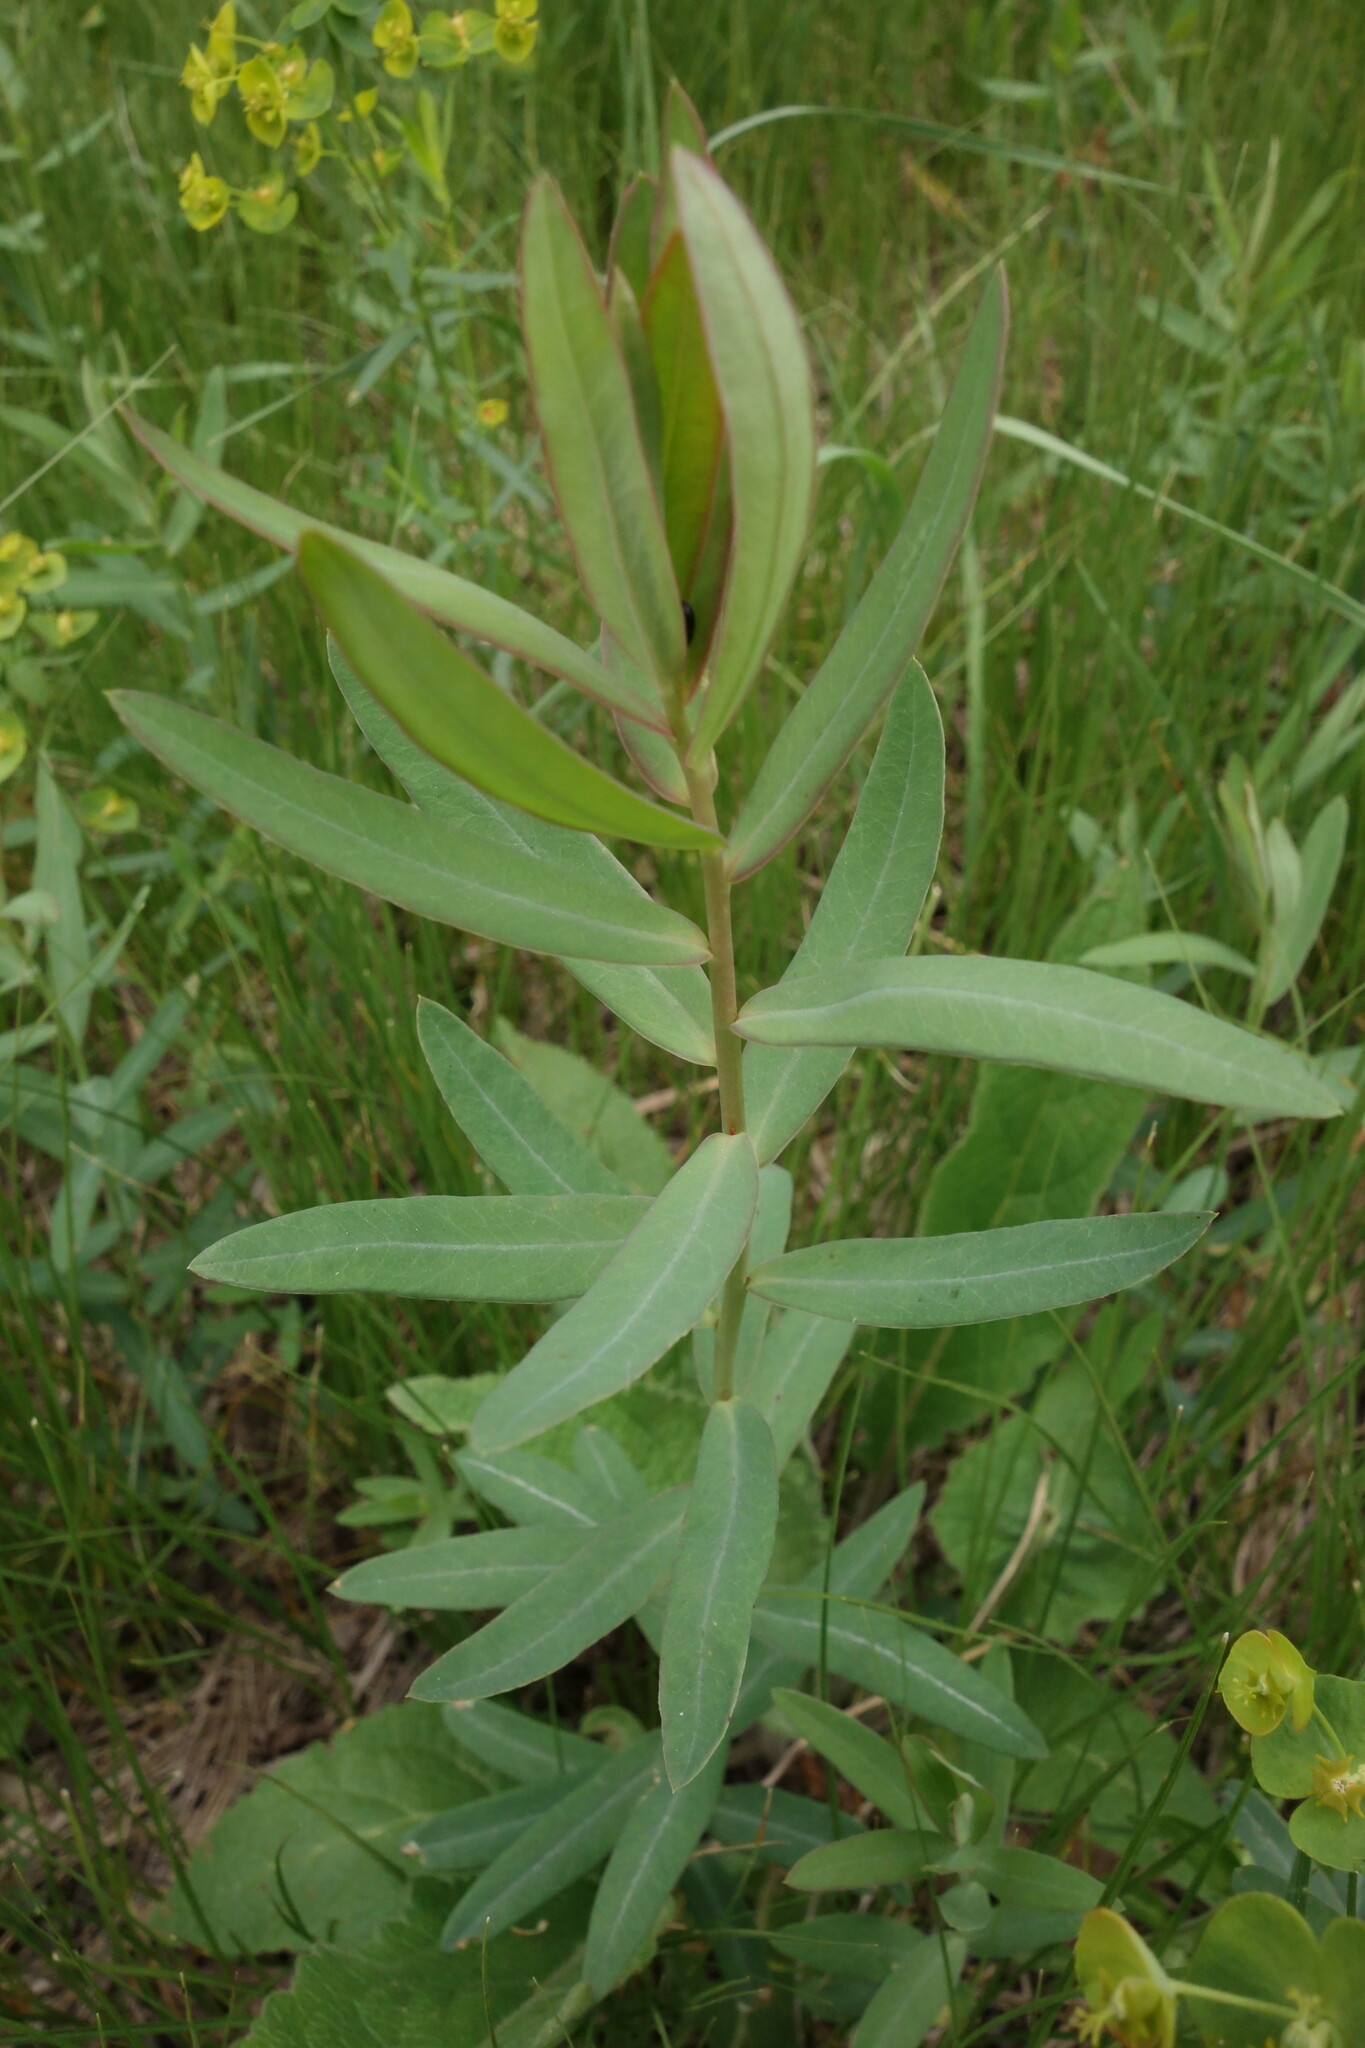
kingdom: Plantae
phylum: Tracheophyta
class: Magnoliopsida
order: Malpighiales
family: Euphorbiaceae
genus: Euphorbia
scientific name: Euphorbia virgata
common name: Leafy spurge
